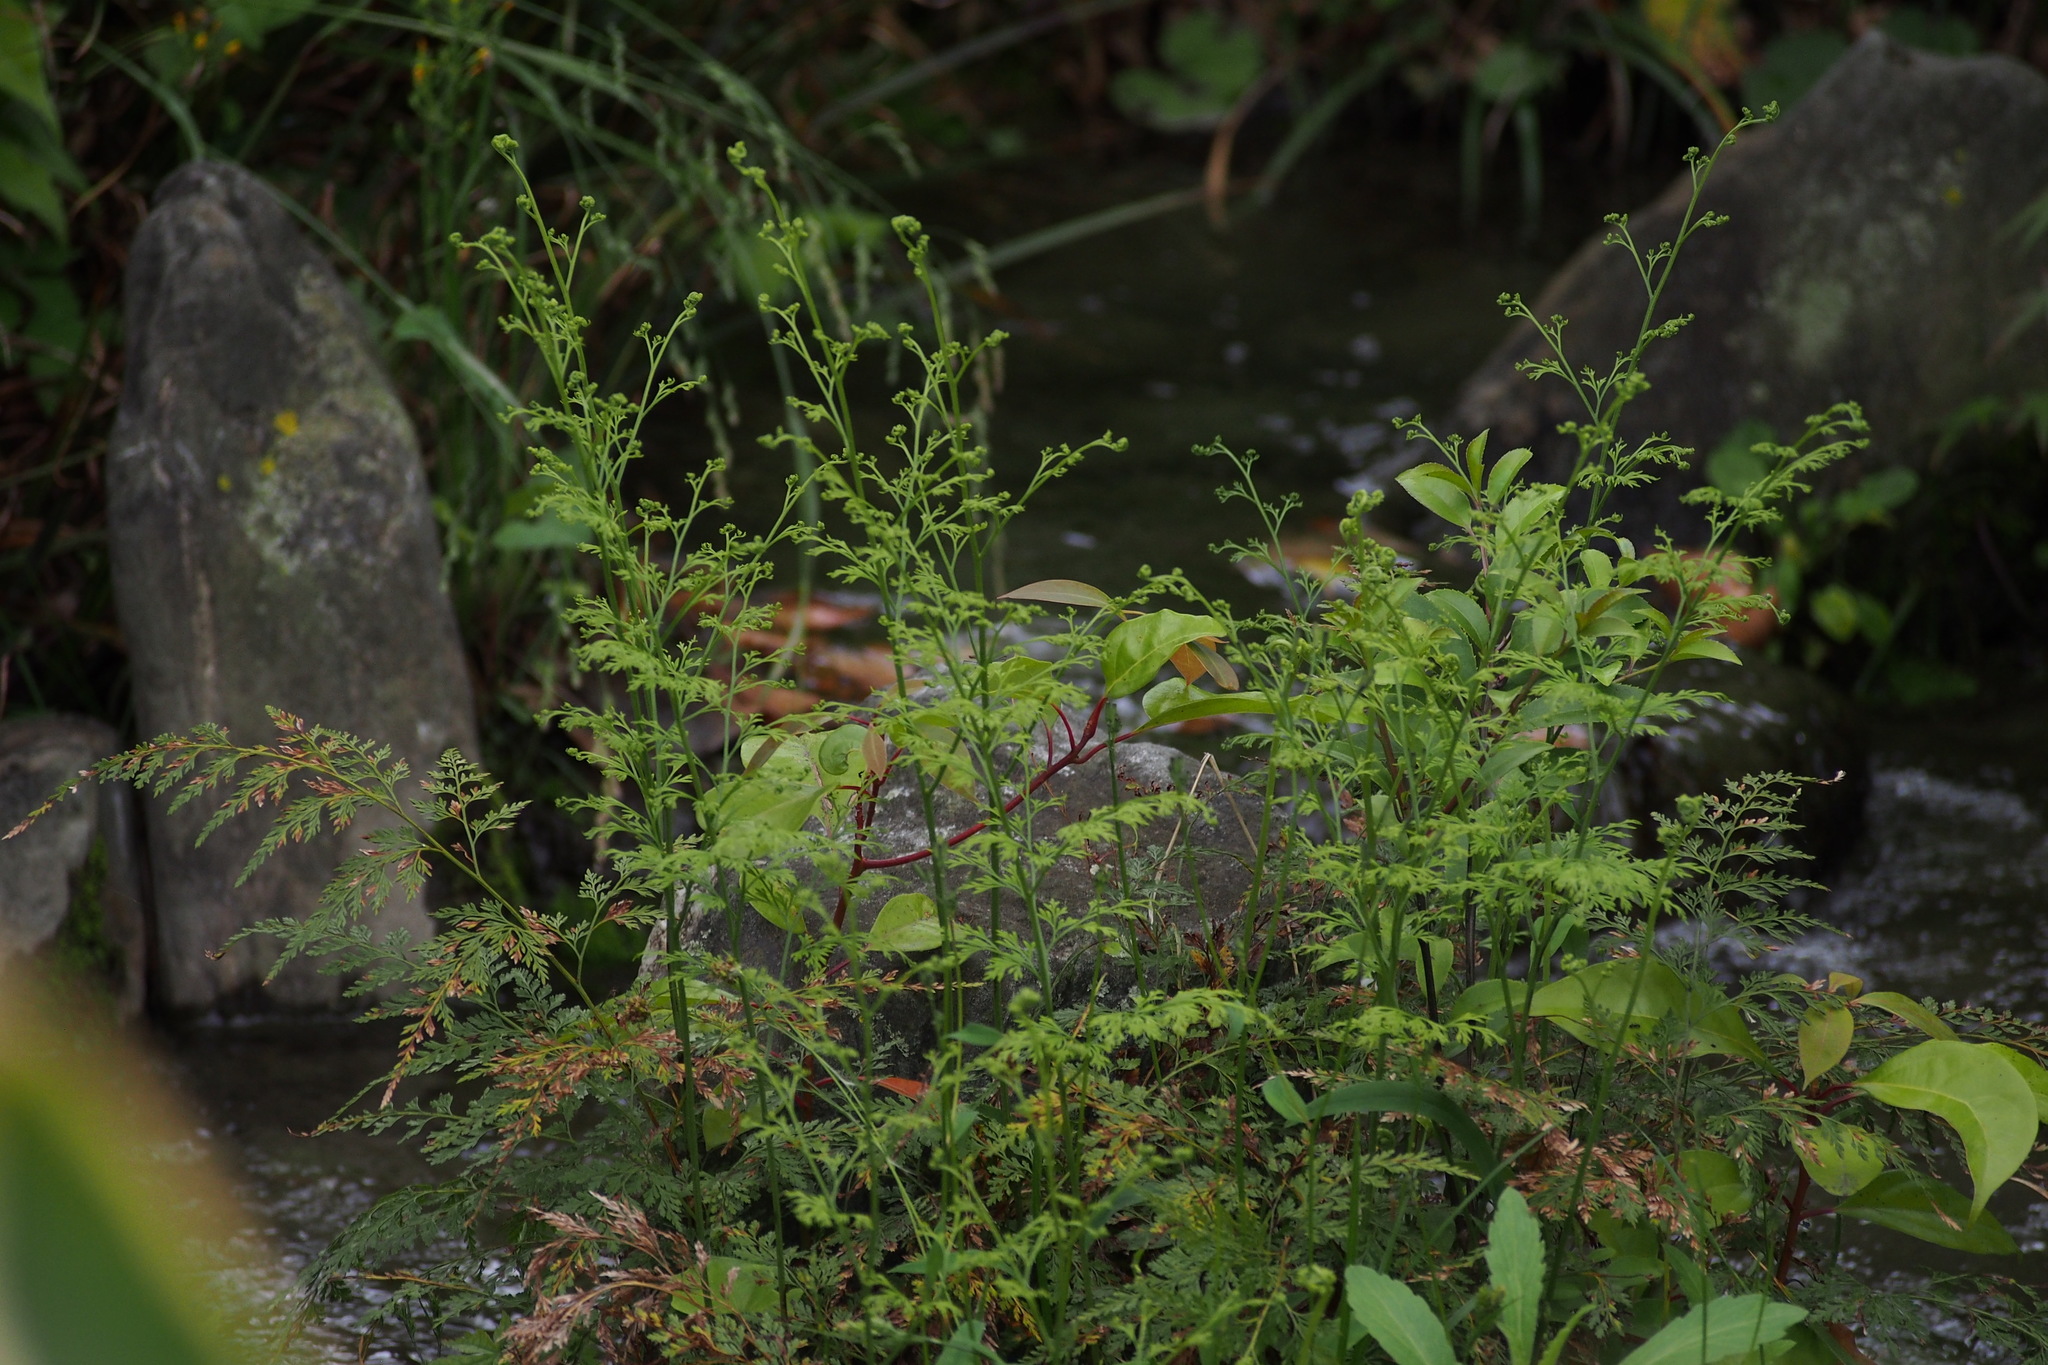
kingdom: Plantae
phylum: Tracheophyta
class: Polypodiopsida
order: Polypodiales
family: Pteridaceae
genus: Onychium
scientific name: Onychium japonicum
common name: Carrot fern
